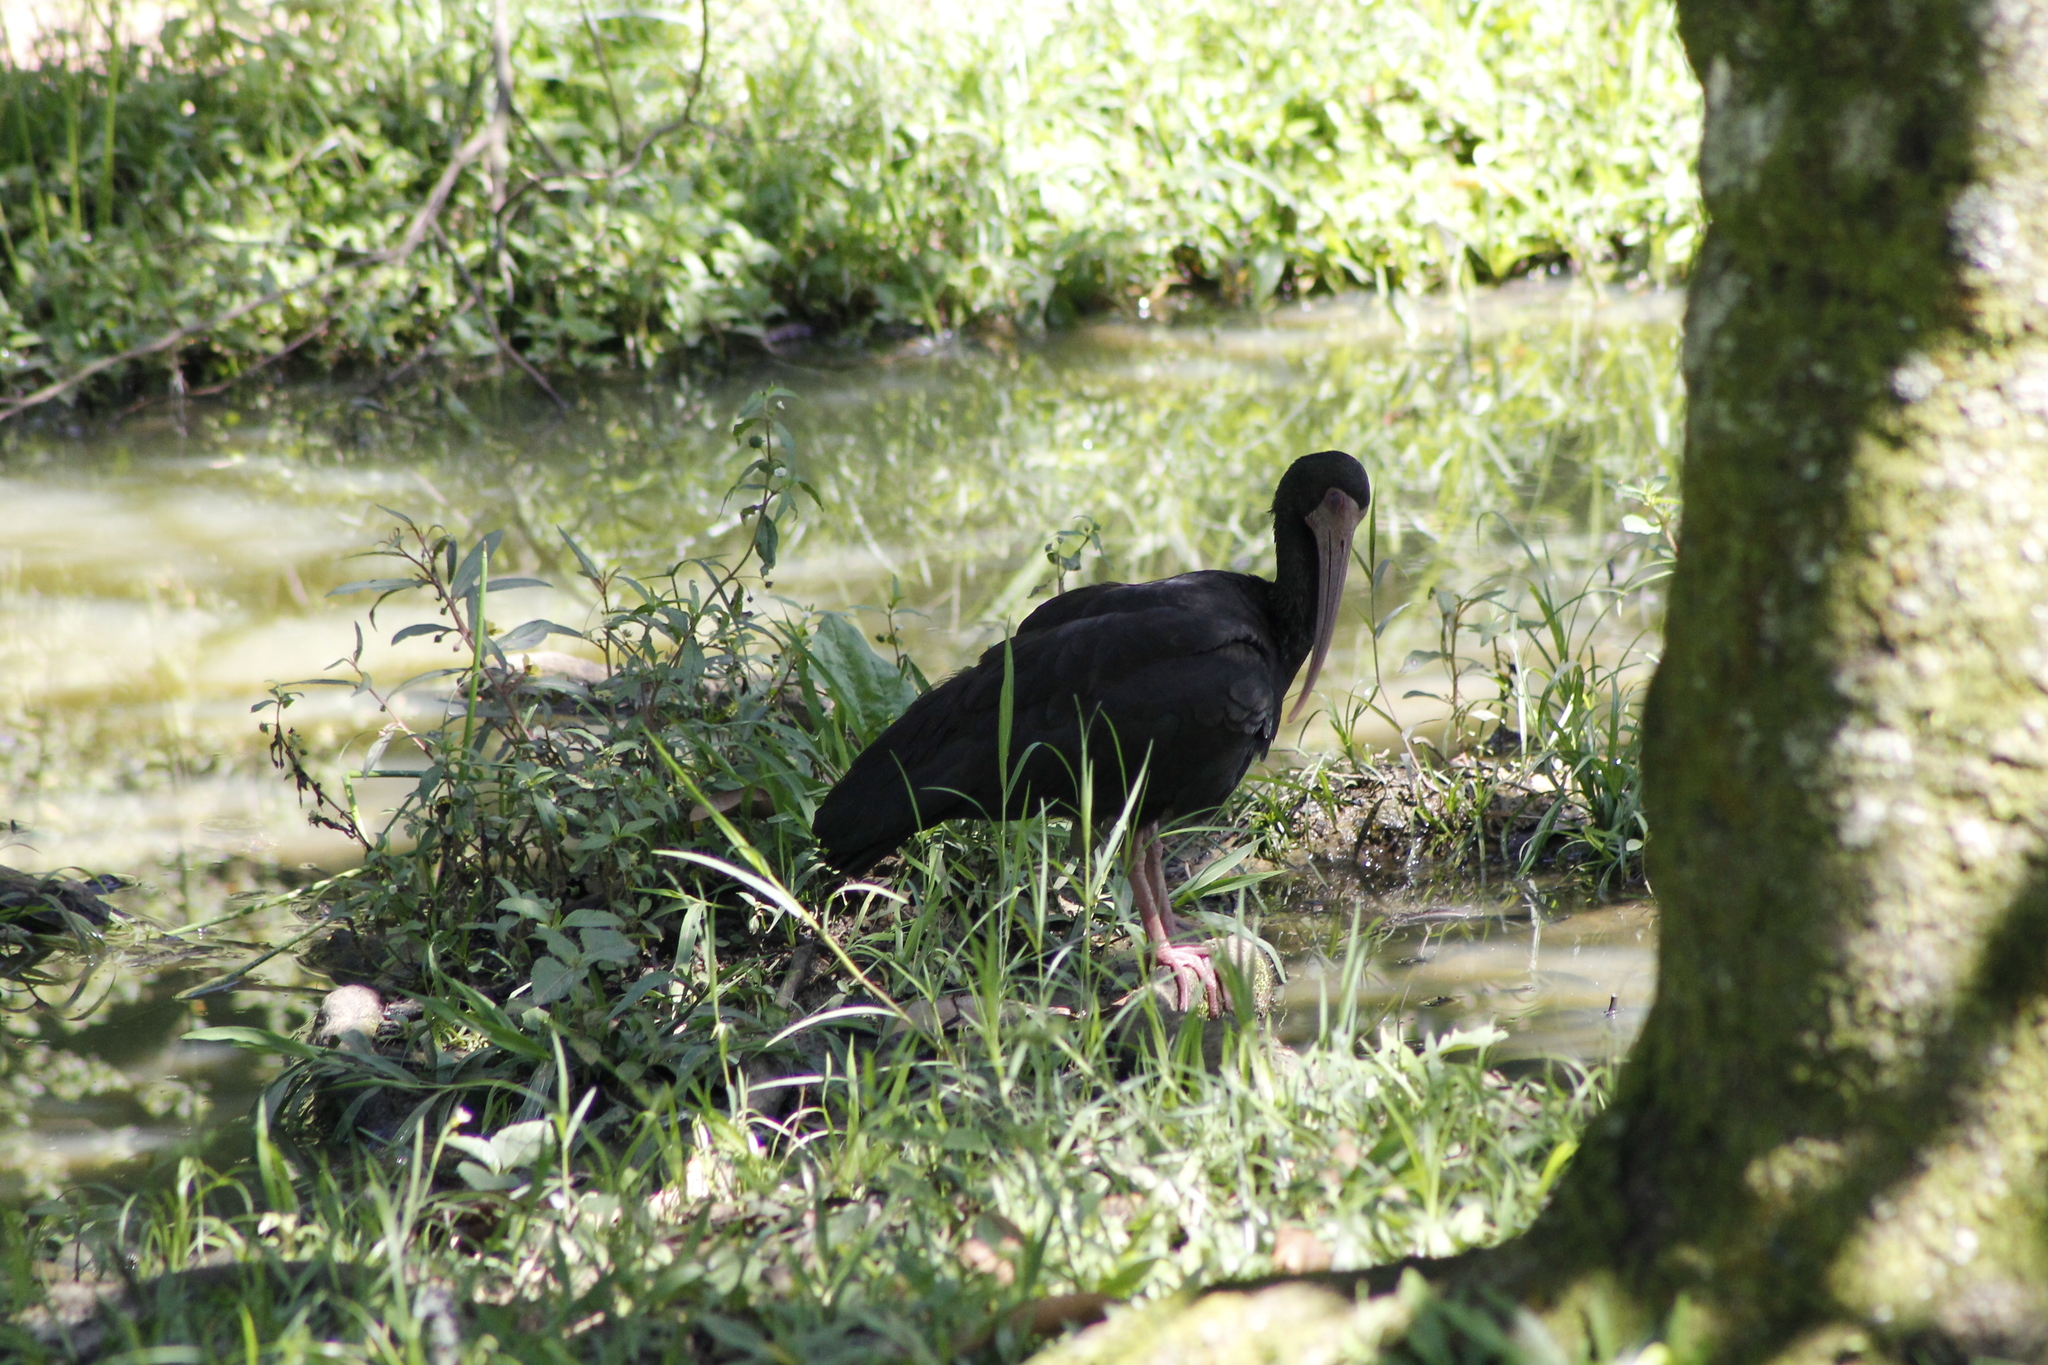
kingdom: Animalia
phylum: Chordata
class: Aves
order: Pelecaniformes
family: Threskiornithidae
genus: Phimosus
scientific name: Phimosus infuscatus
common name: Bare-faced ibis
